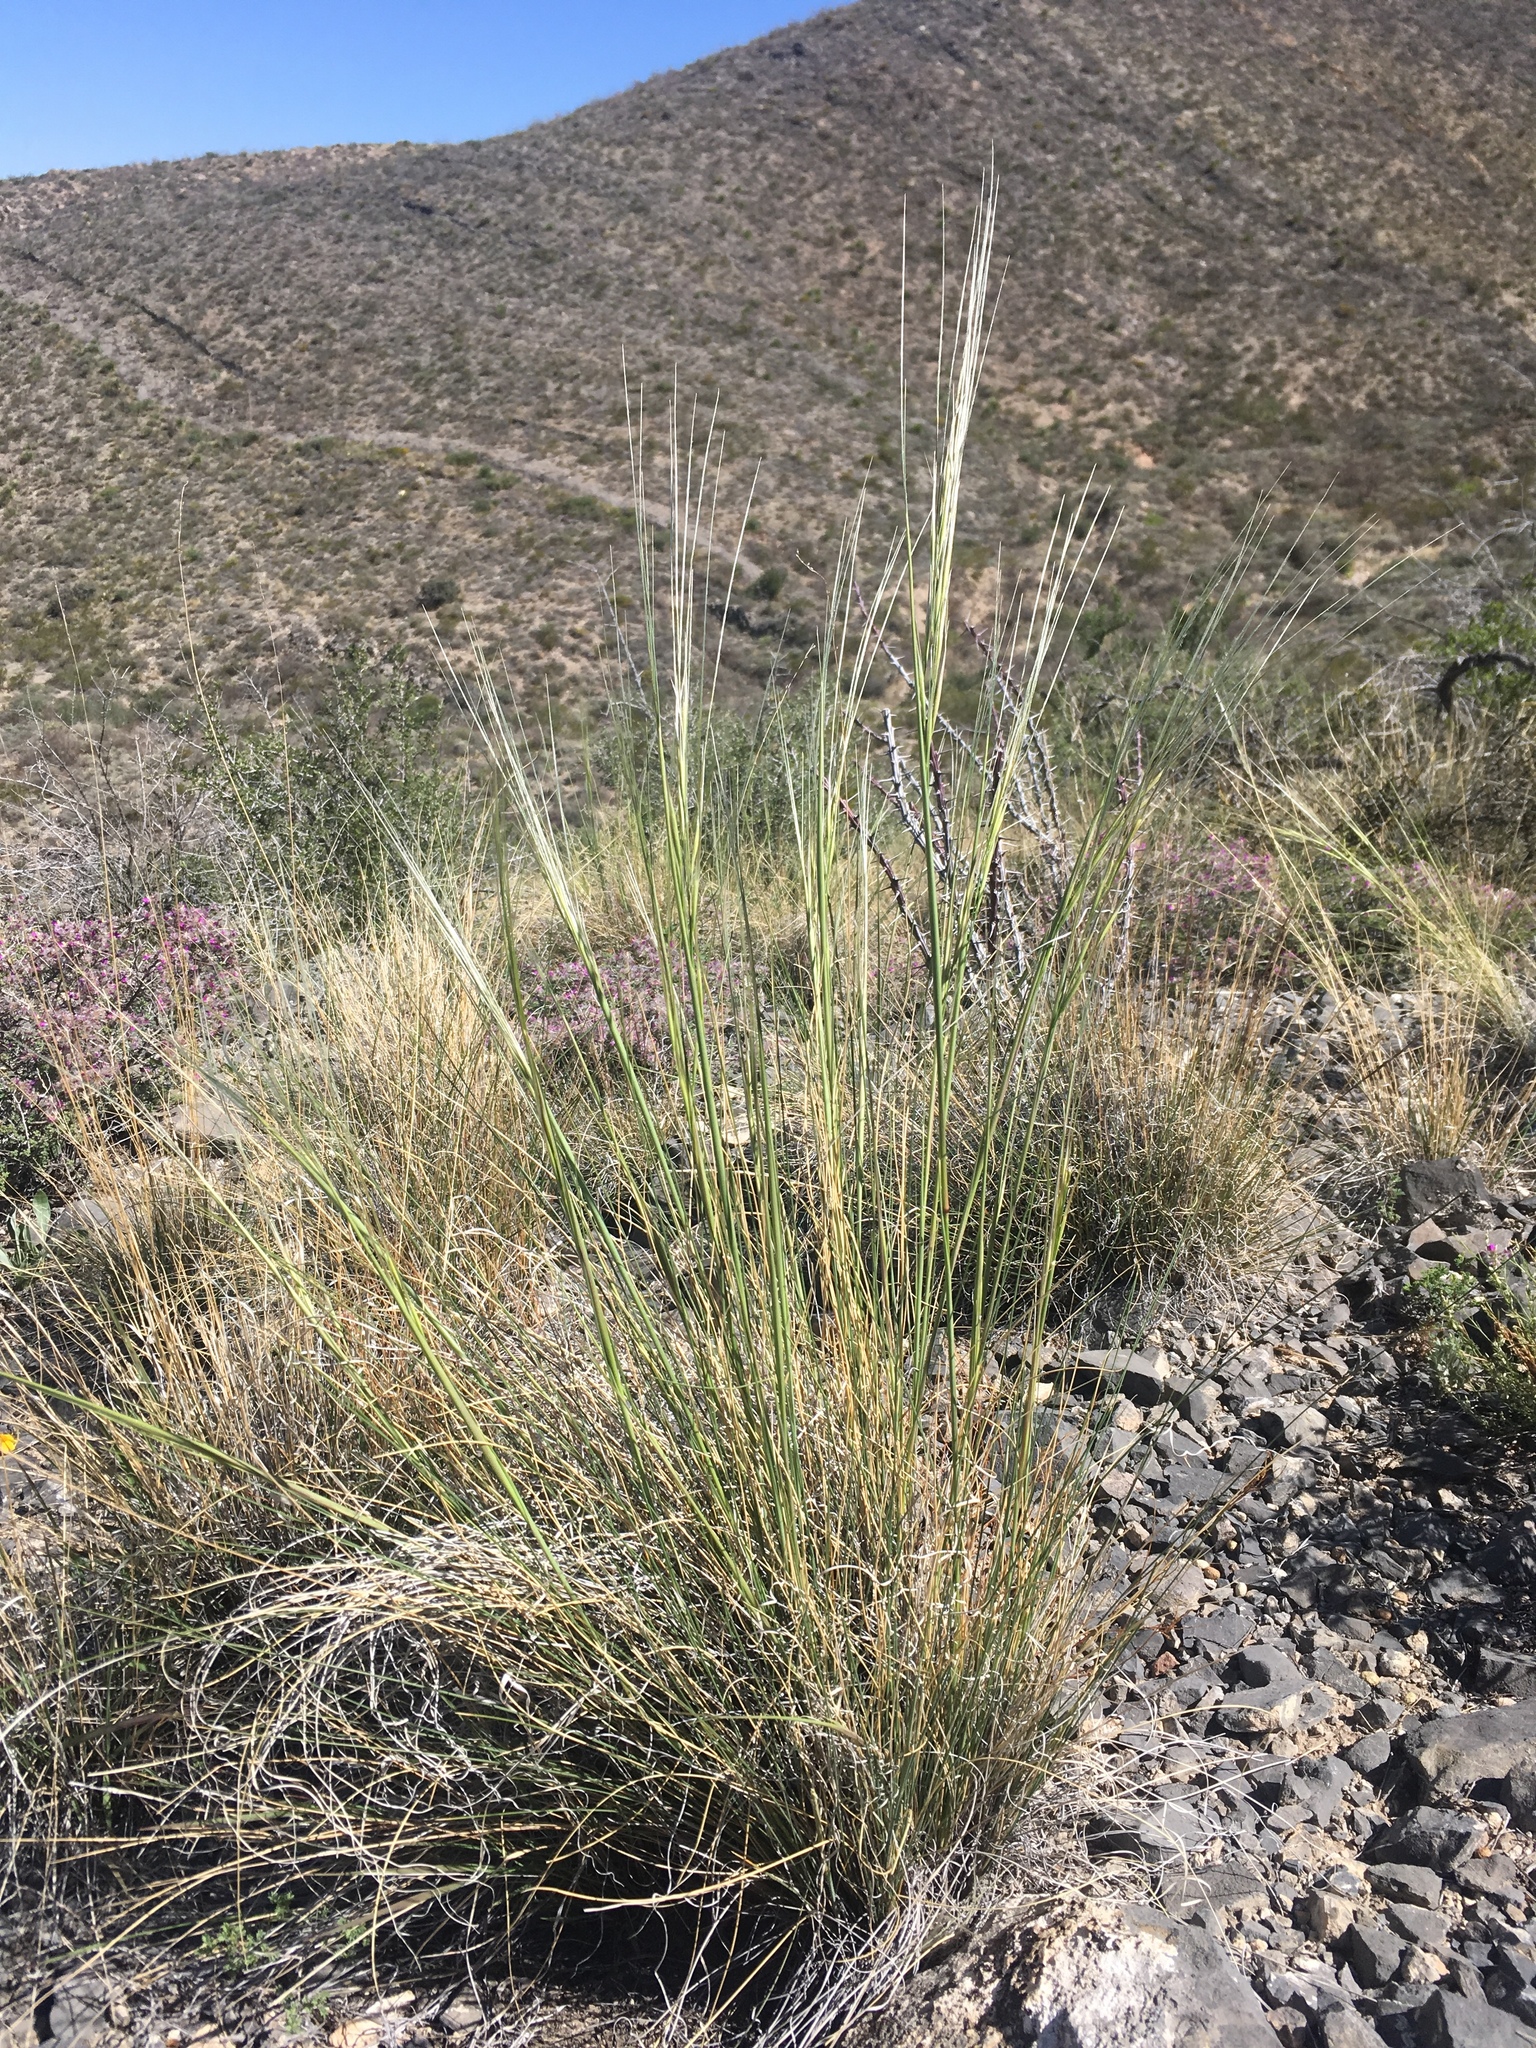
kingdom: Plantae
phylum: Tracheophyta
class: Liliopsida
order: Poales
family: Poaceae
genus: Hesperostipa
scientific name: Hesperostipa neomexicana
